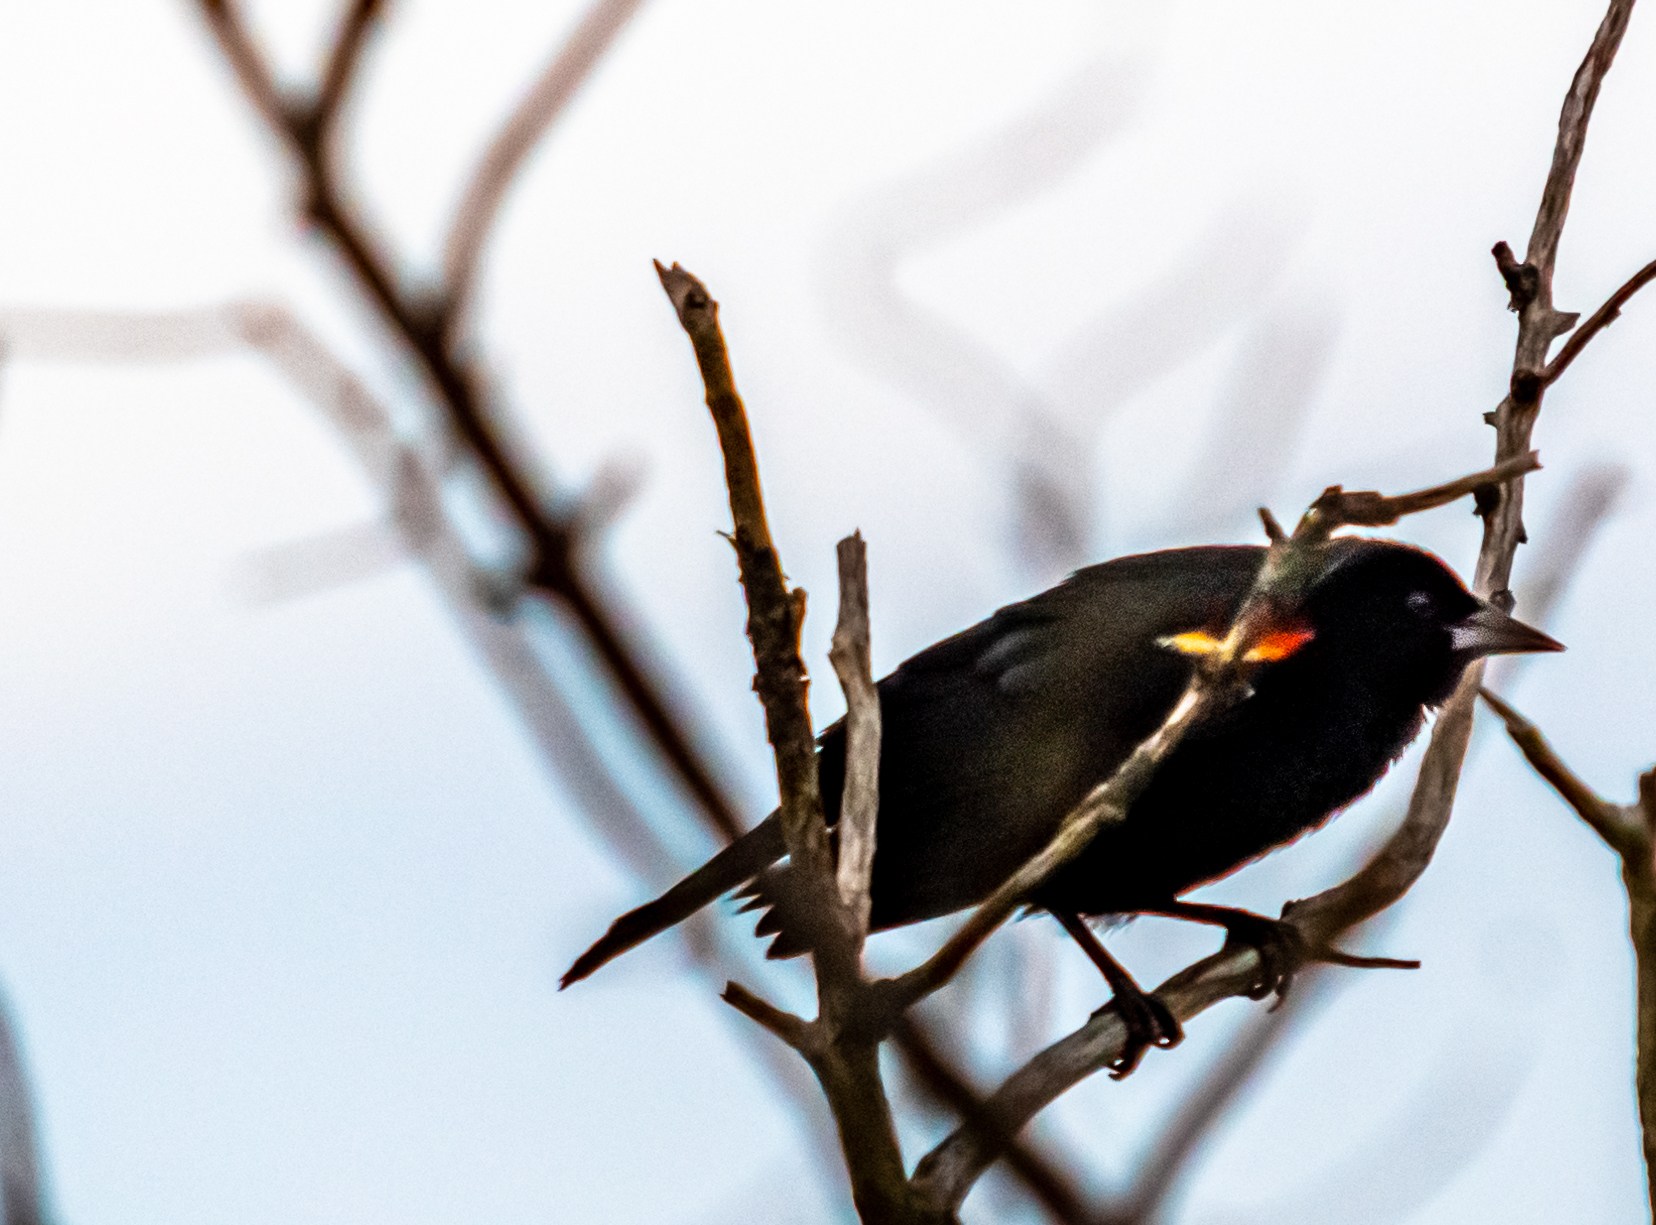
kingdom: Animalia
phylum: Chordata
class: Aves
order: Passeriformes
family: Icteridae
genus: Agelaius
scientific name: Agelaius phoeniceus
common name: Red-winged blackbird
